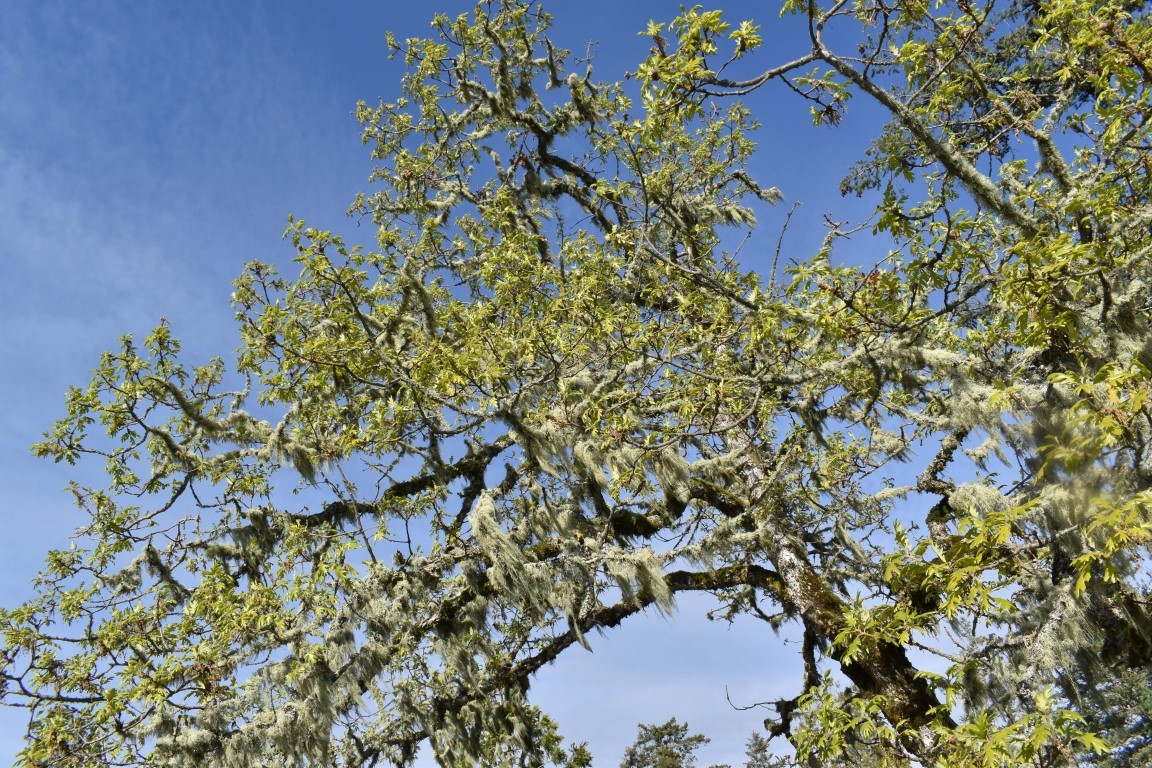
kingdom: Plantae
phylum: Tracheophyta
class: Magnoliopsida
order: Fagales
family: Fagaceae
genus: Quercus
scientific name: Quercus garryana
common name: Garry oak
